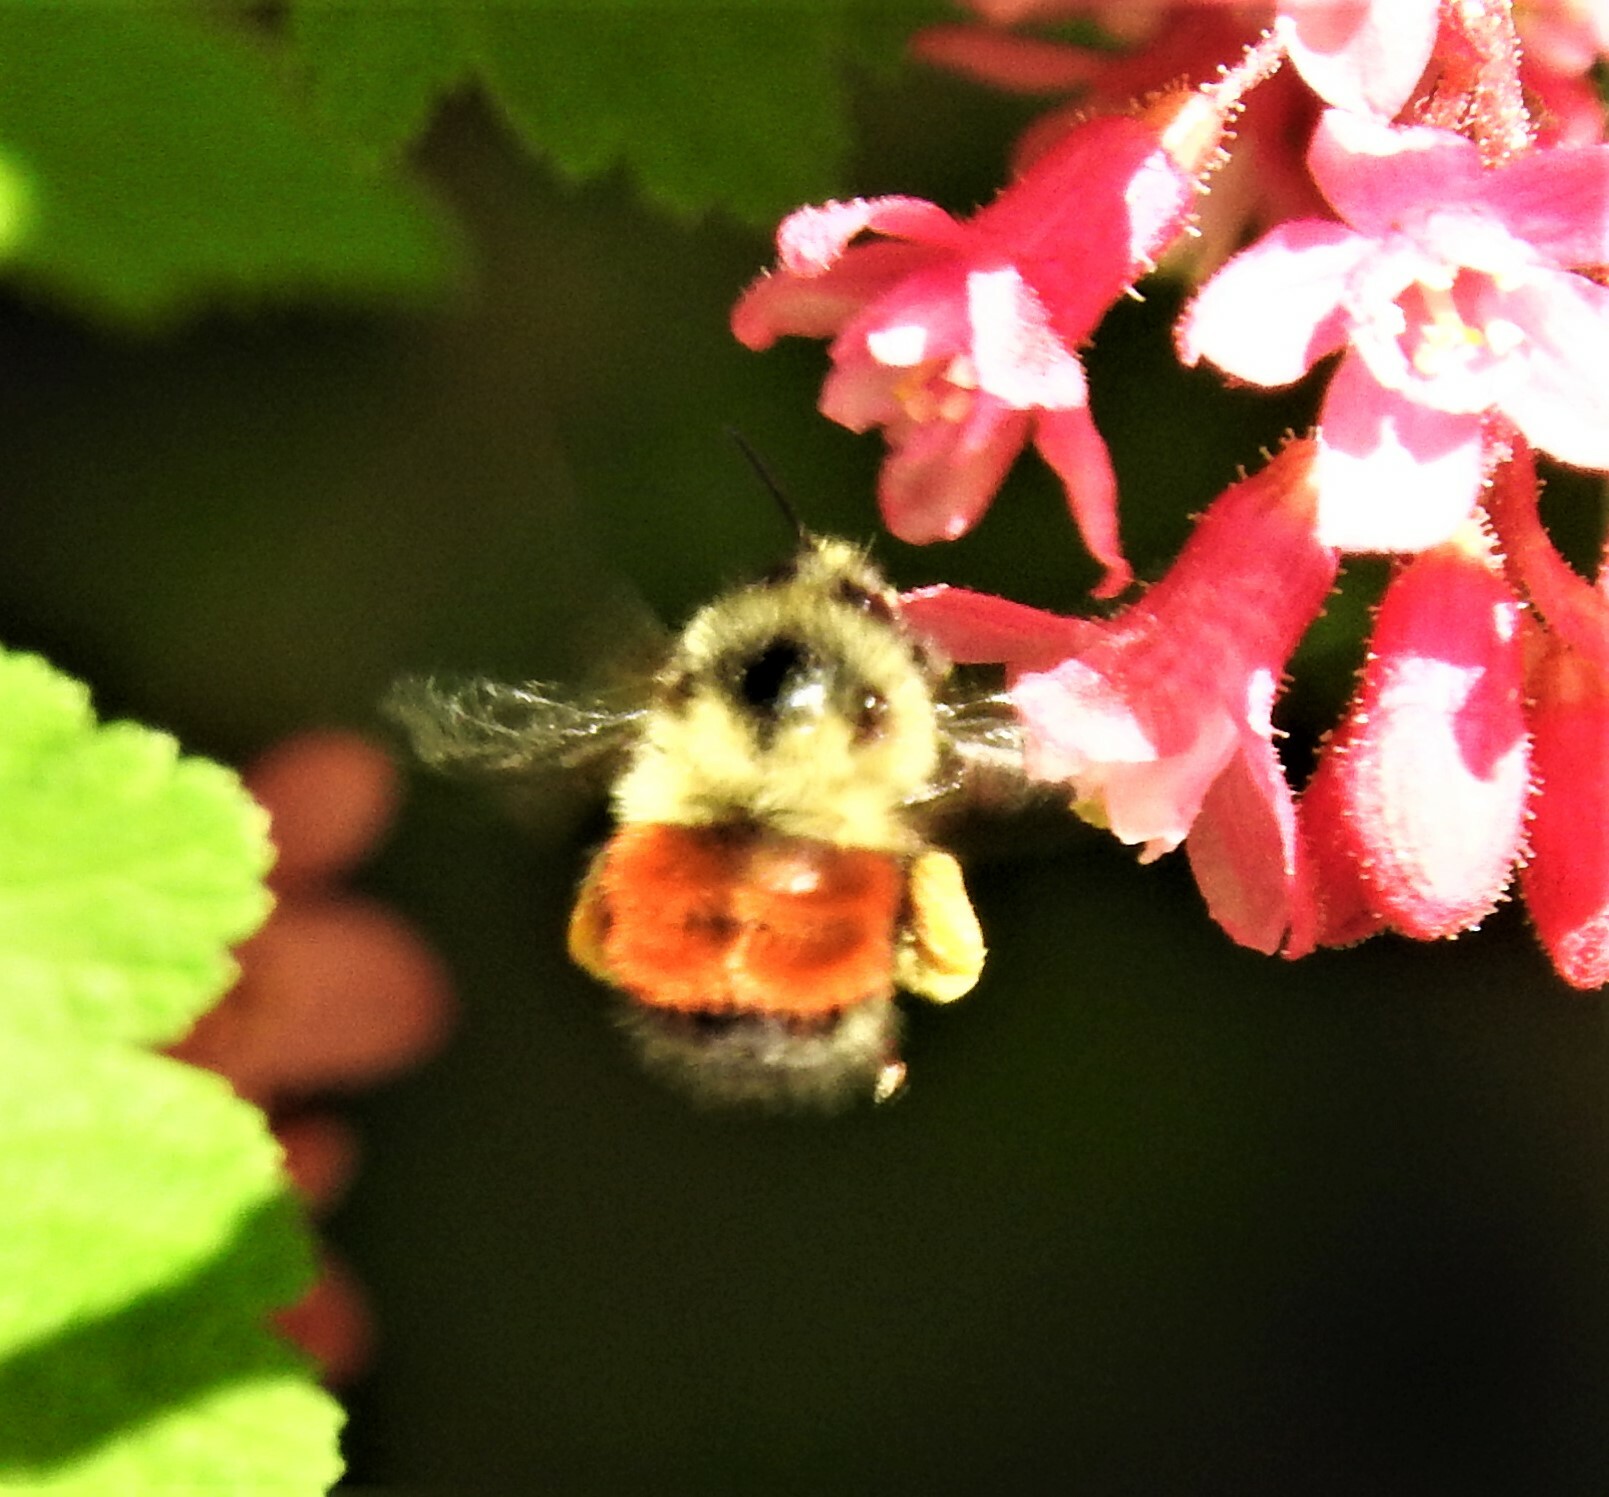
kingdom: Animalia
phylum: Arthropoda
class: Insecta
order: Hymenoptera
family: Apidae
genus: Bombus
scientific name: Bombus melanopygus
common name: Black tail bumble bee
